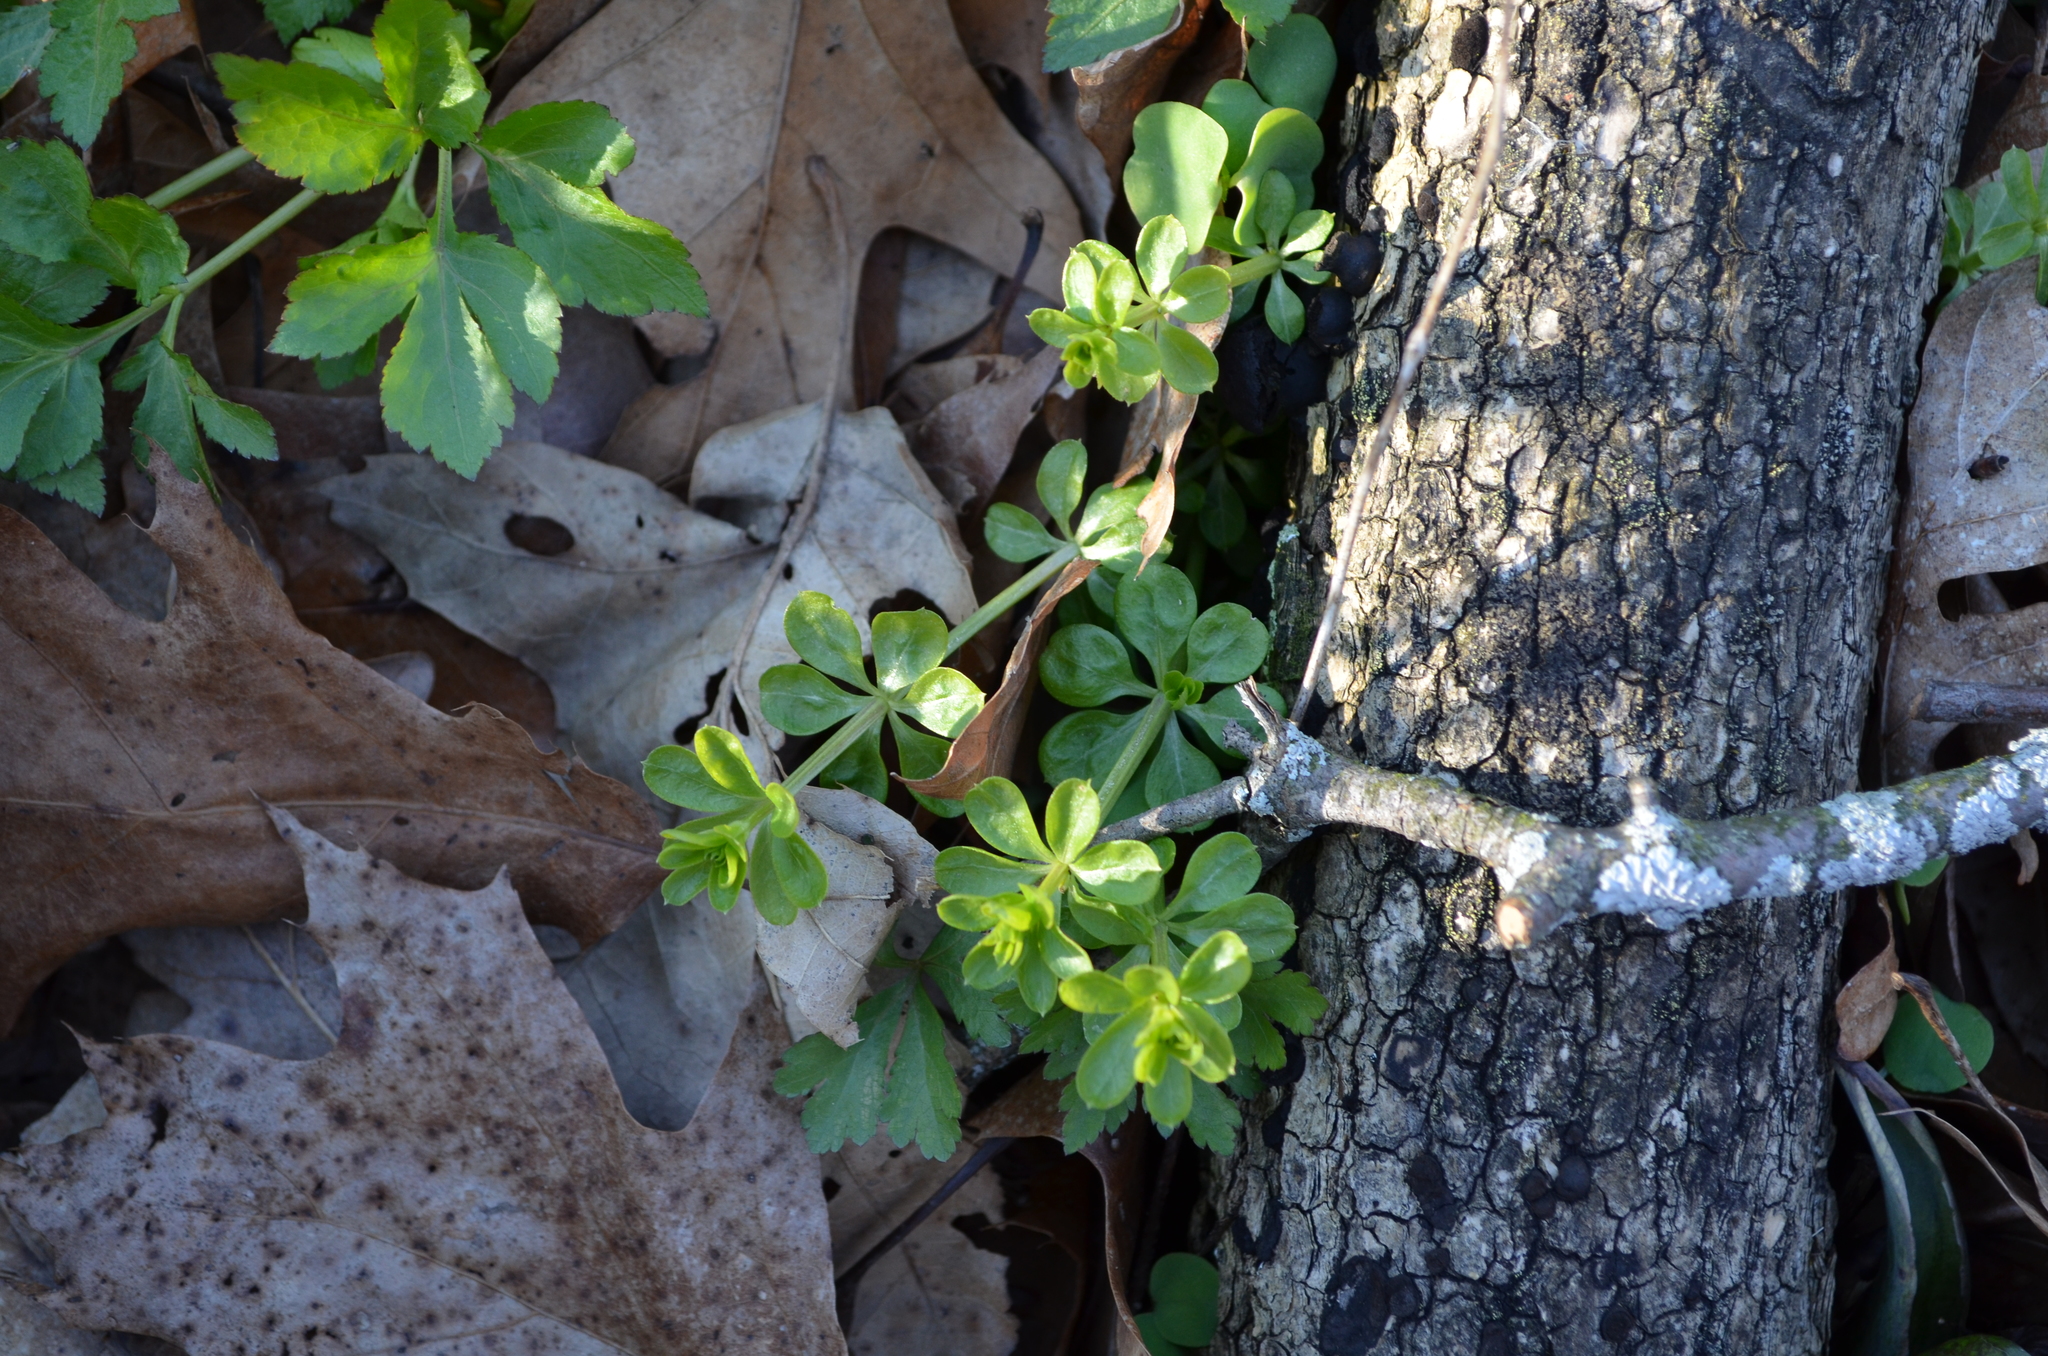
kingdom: Plantae
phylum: Tracheophyta
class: Magnoliopsida
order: Gentianales
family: Rubiaceae
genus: Galium
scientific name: Galium triflorum
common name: Fragrant bedstraw
